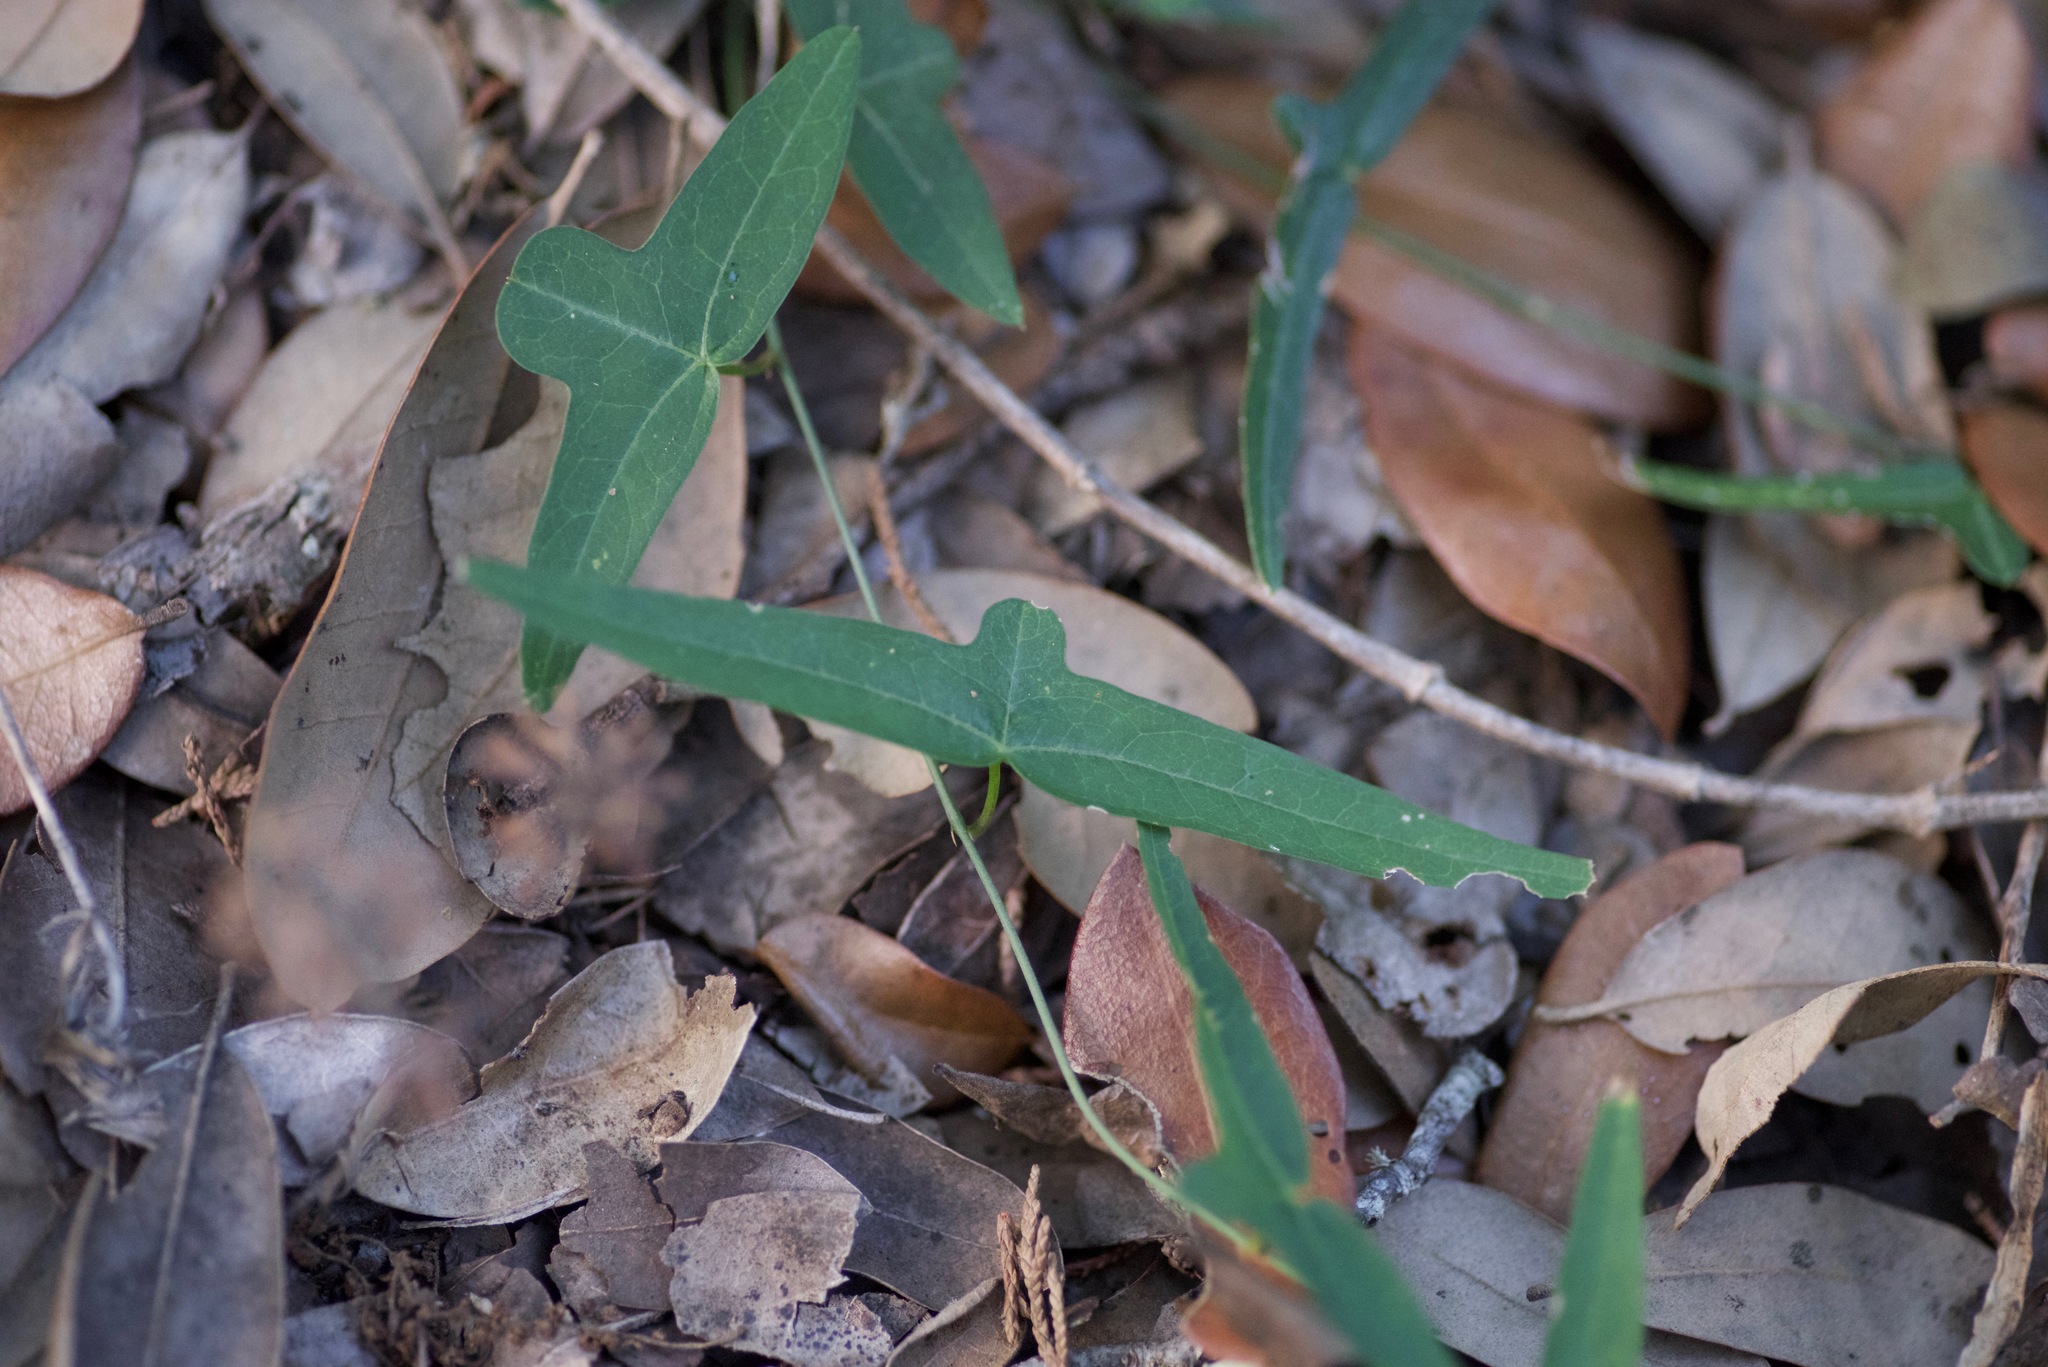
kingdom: Plantae
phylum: Tracheophyta
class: Magnoliopsida
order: Malpighiales
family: Passifloraceae
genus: Passiflora
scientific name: Passiflora tenuiloba
